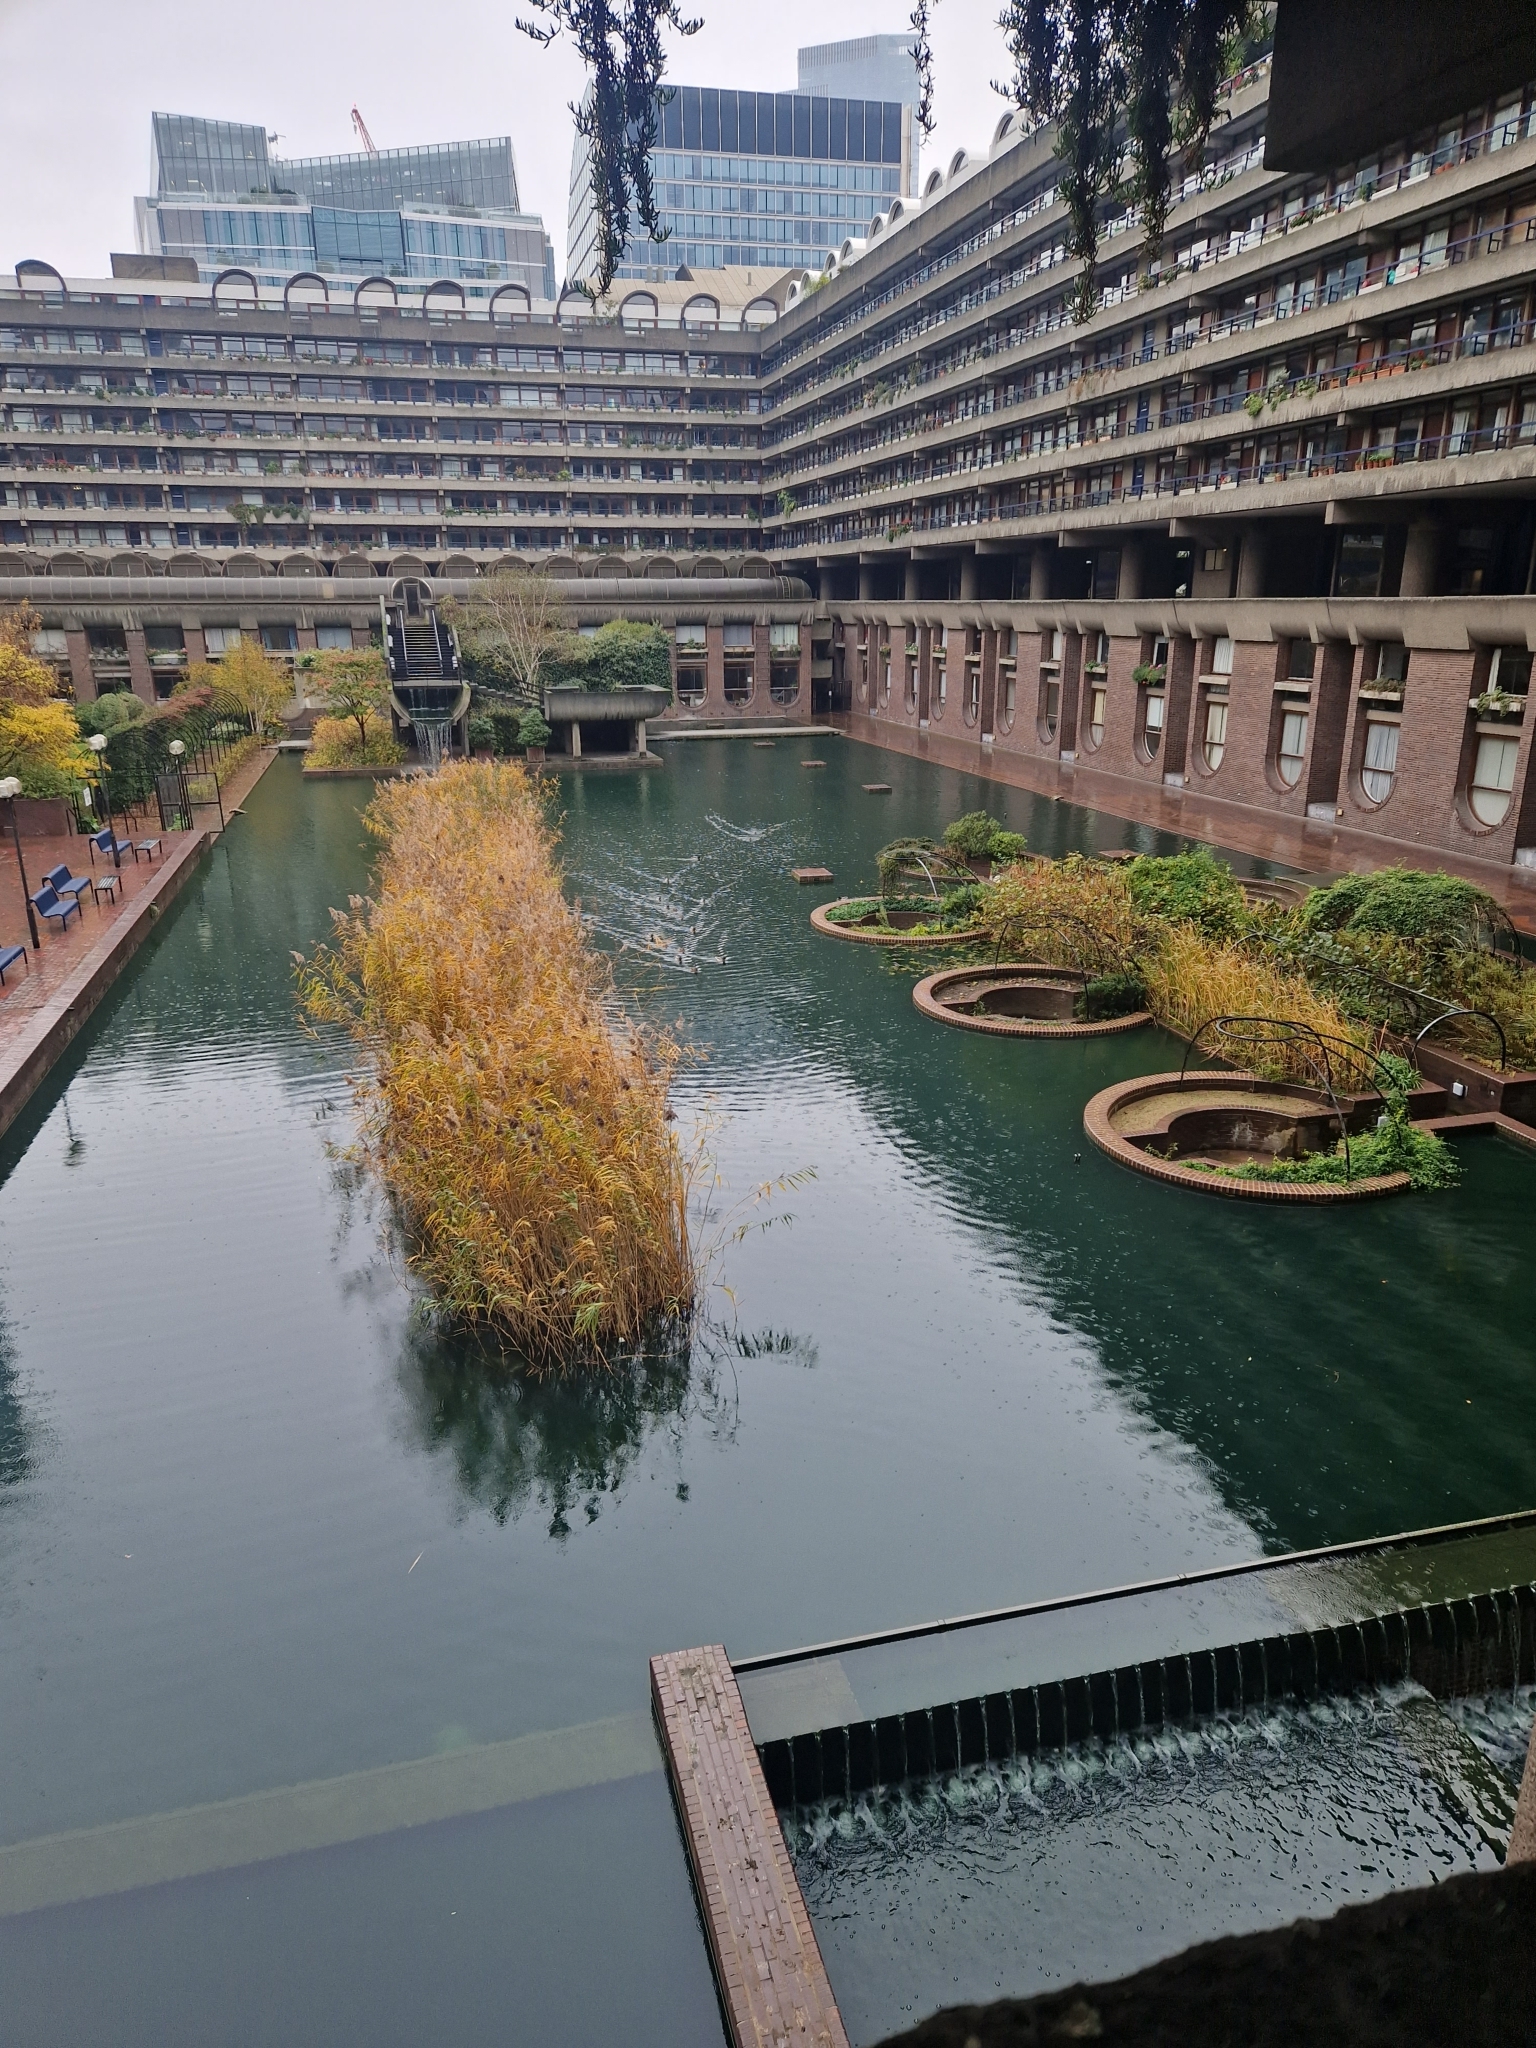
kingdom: Animalia
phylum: Chordata
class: Aves
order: Anseriformes
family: Anatidae
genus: Anas
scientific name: Anas platyrhynchos
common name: Mallard
